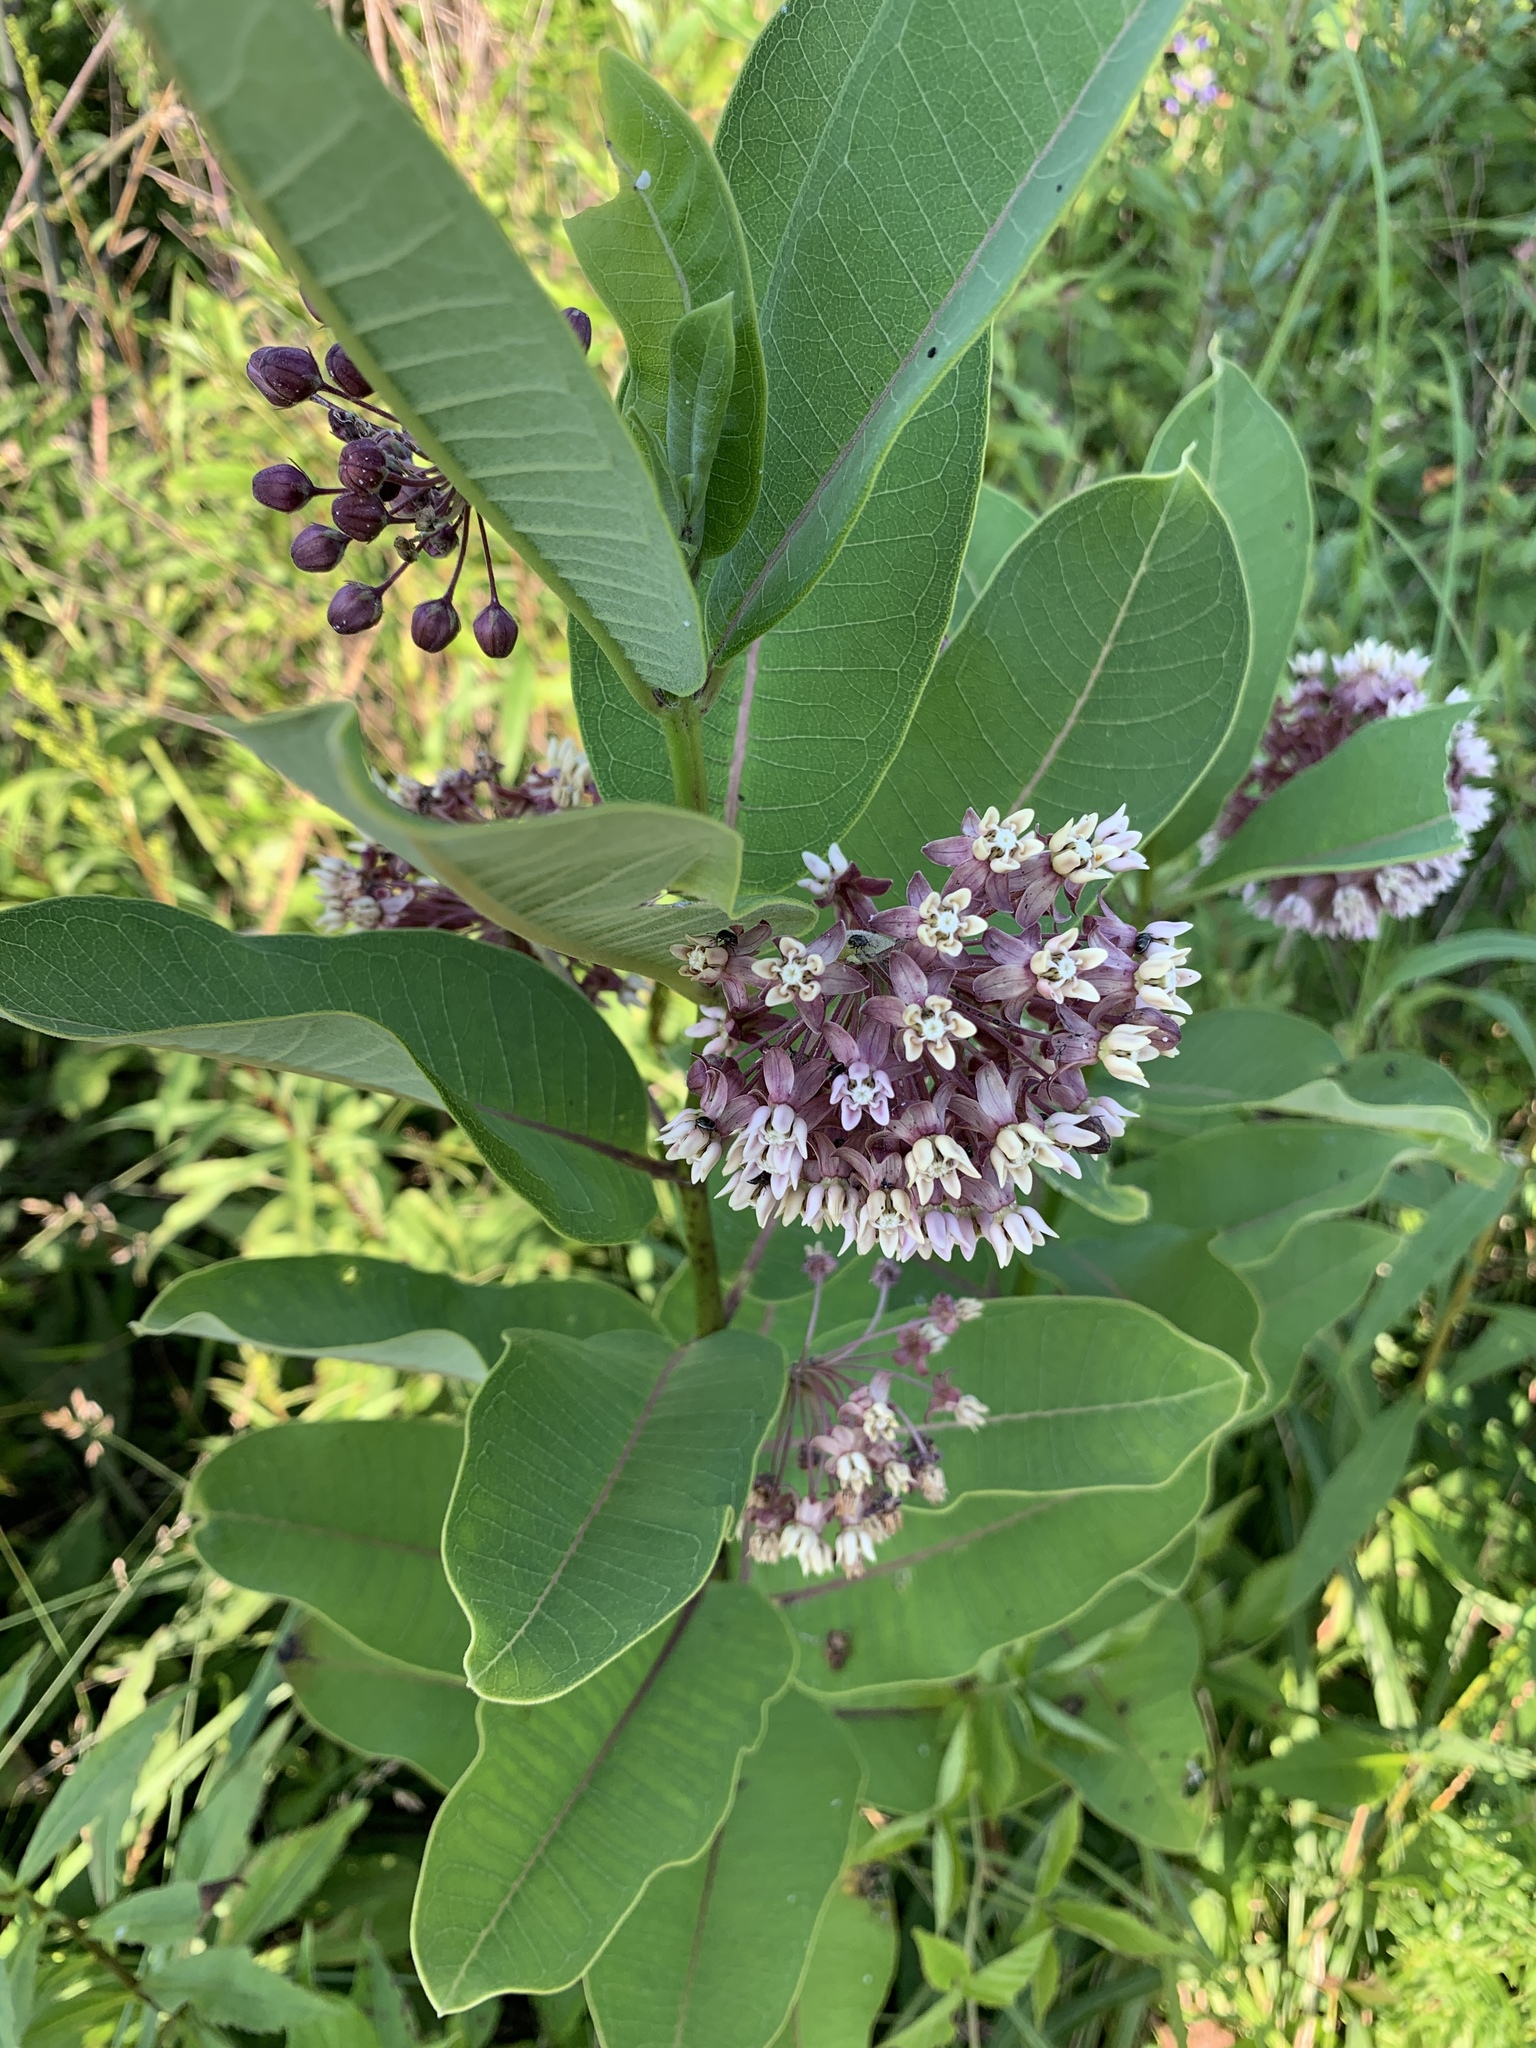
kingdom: Plantae
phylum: Tracheophyta
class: Magnoliopsida
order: Gentianales
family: Apocynaceae
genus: Asclepias
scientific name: Asclepias syriaca
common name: Common milkweed
